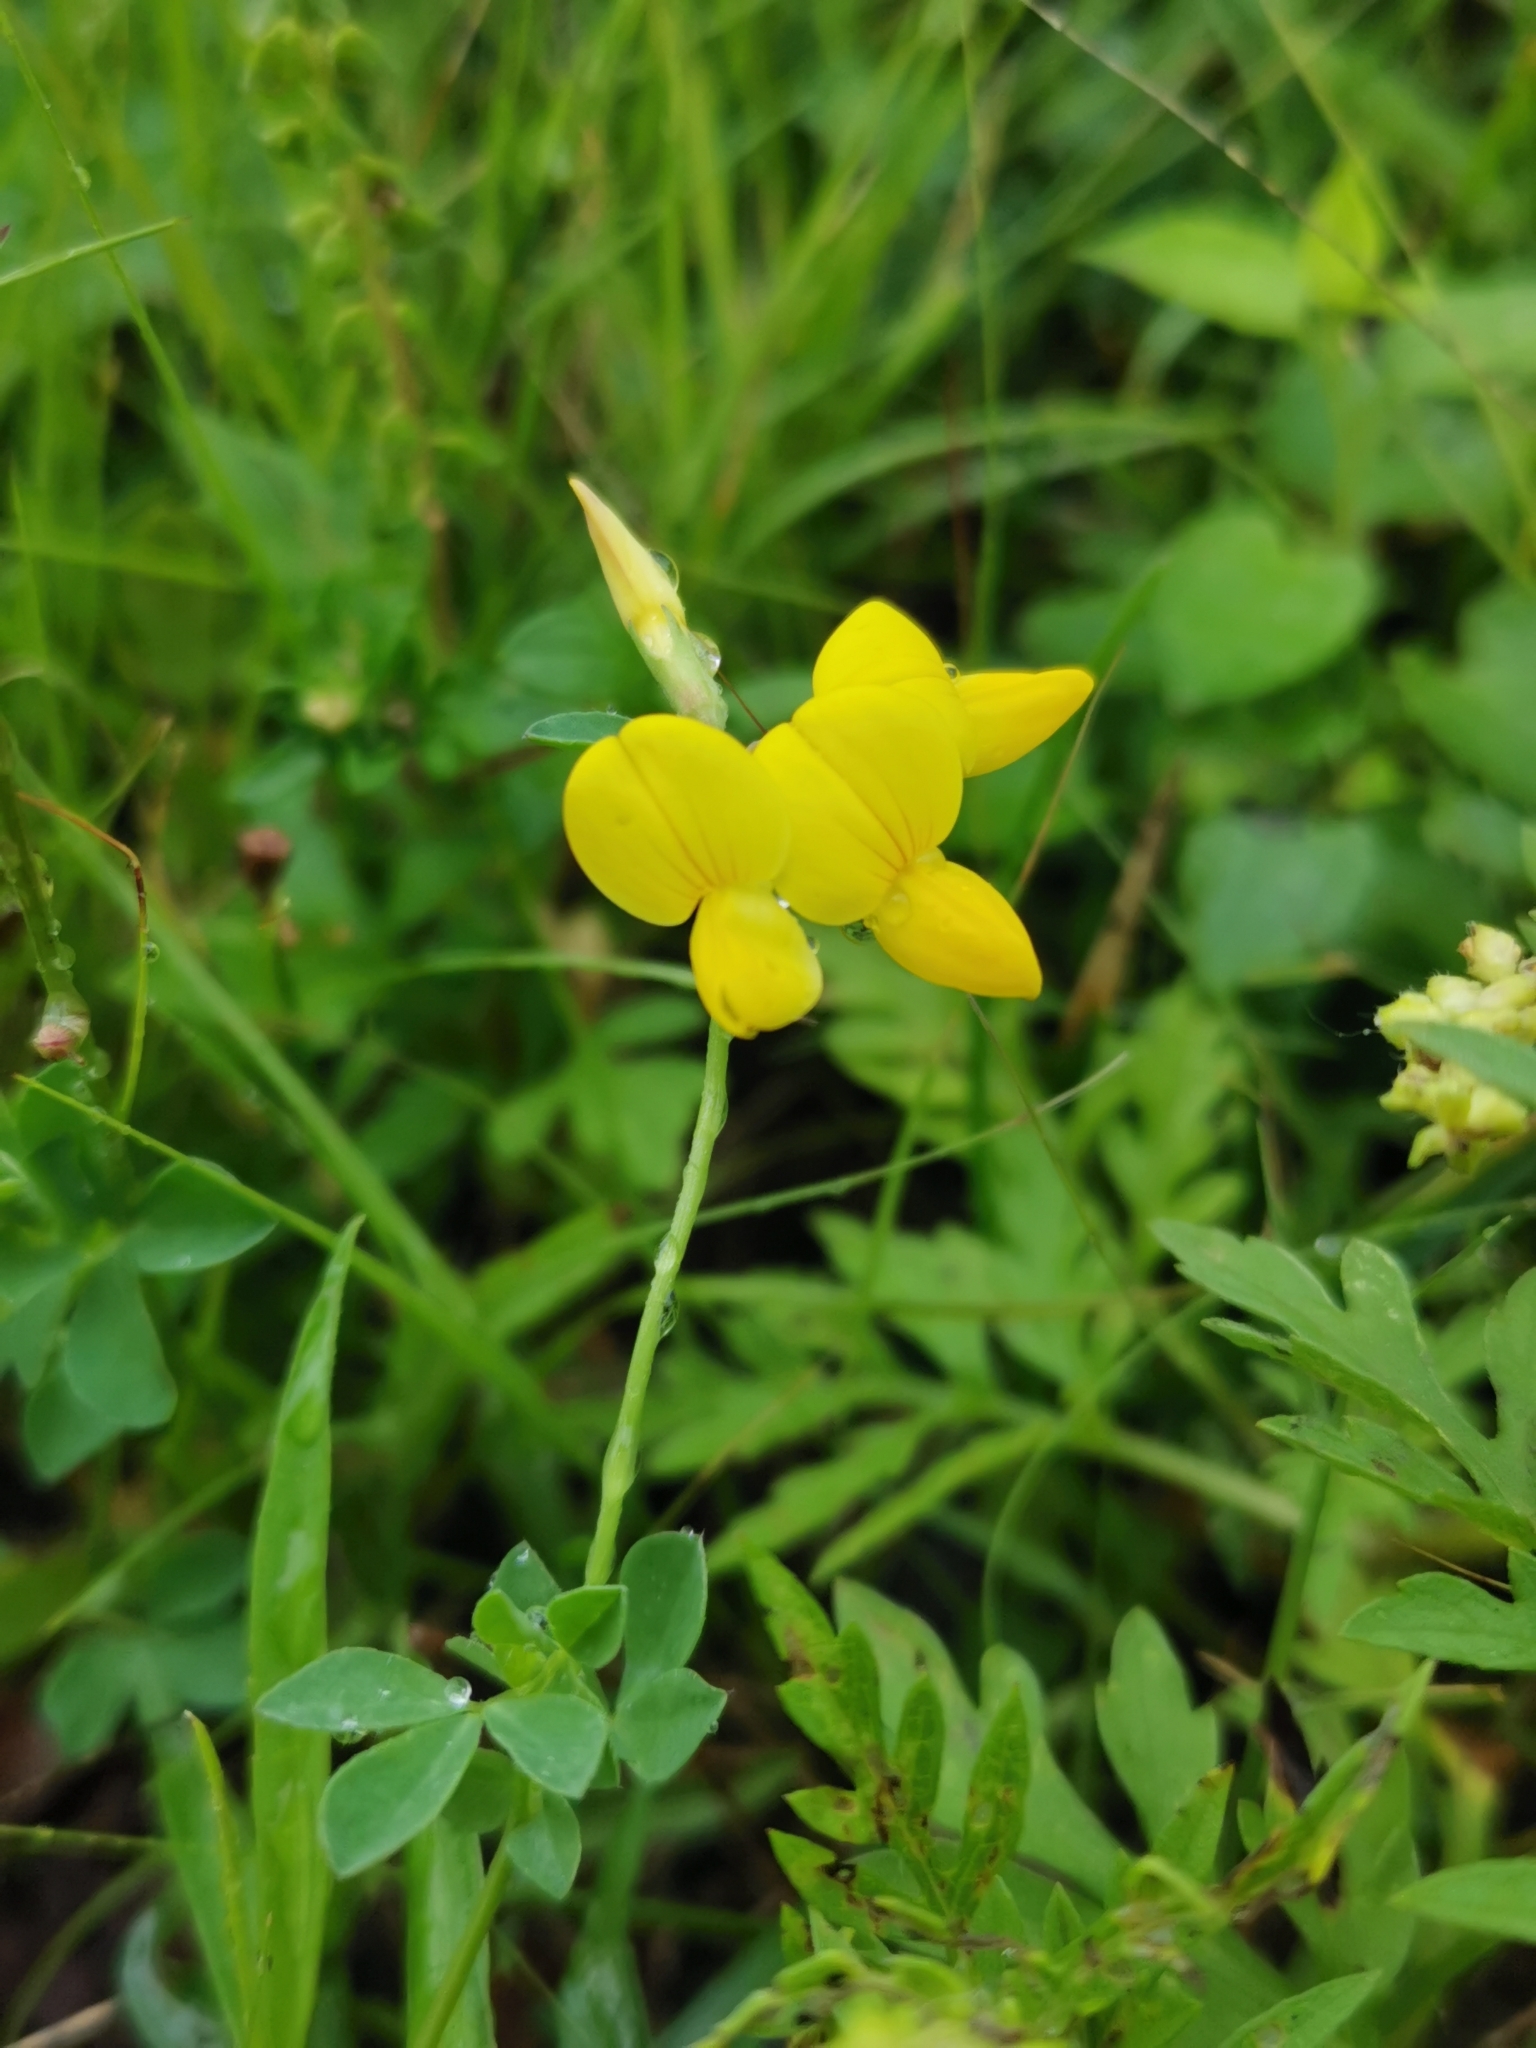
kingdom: Plantae
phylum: Tracheophyta
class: Magnoliopsida
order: Fabales
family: Fabaceae
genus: Lotus
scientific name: Lotus corniculatus
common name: Common bird's-foot-trefoil
